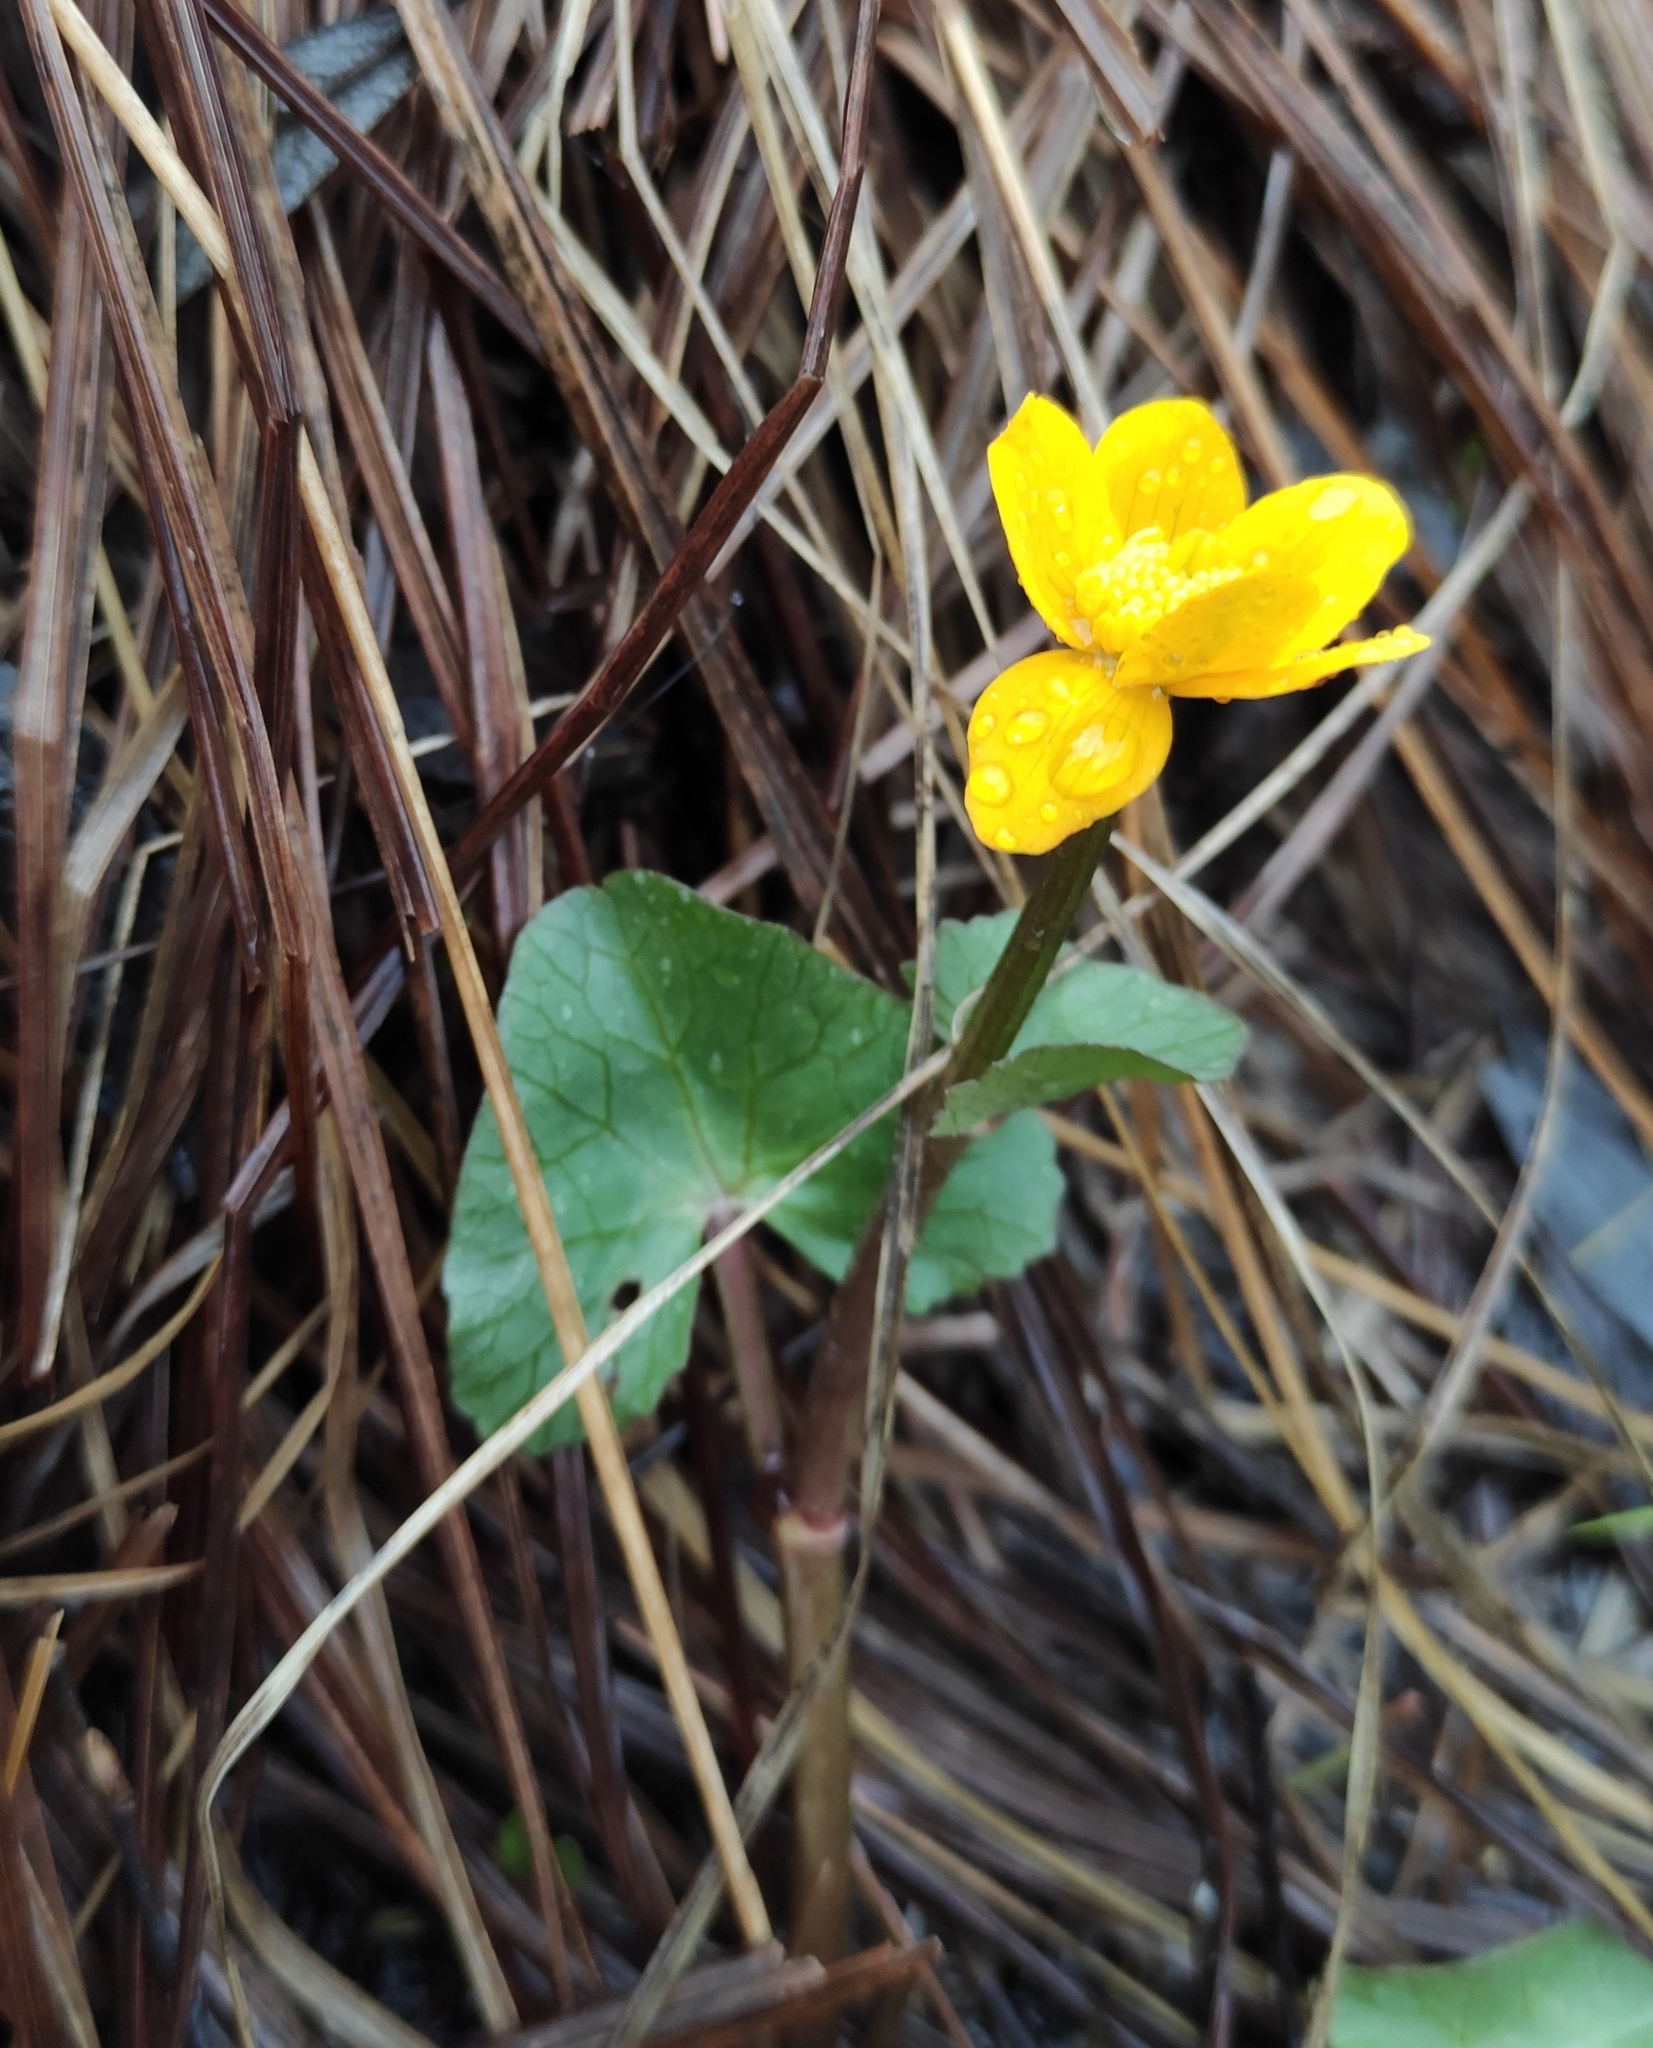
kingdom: Plantae
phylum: Tracheophyta
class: Magnoliopsida
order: Ranunculales
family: Ranunculaceae
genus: Caltha
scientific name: Caltha palustris
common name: Marsh marigold
